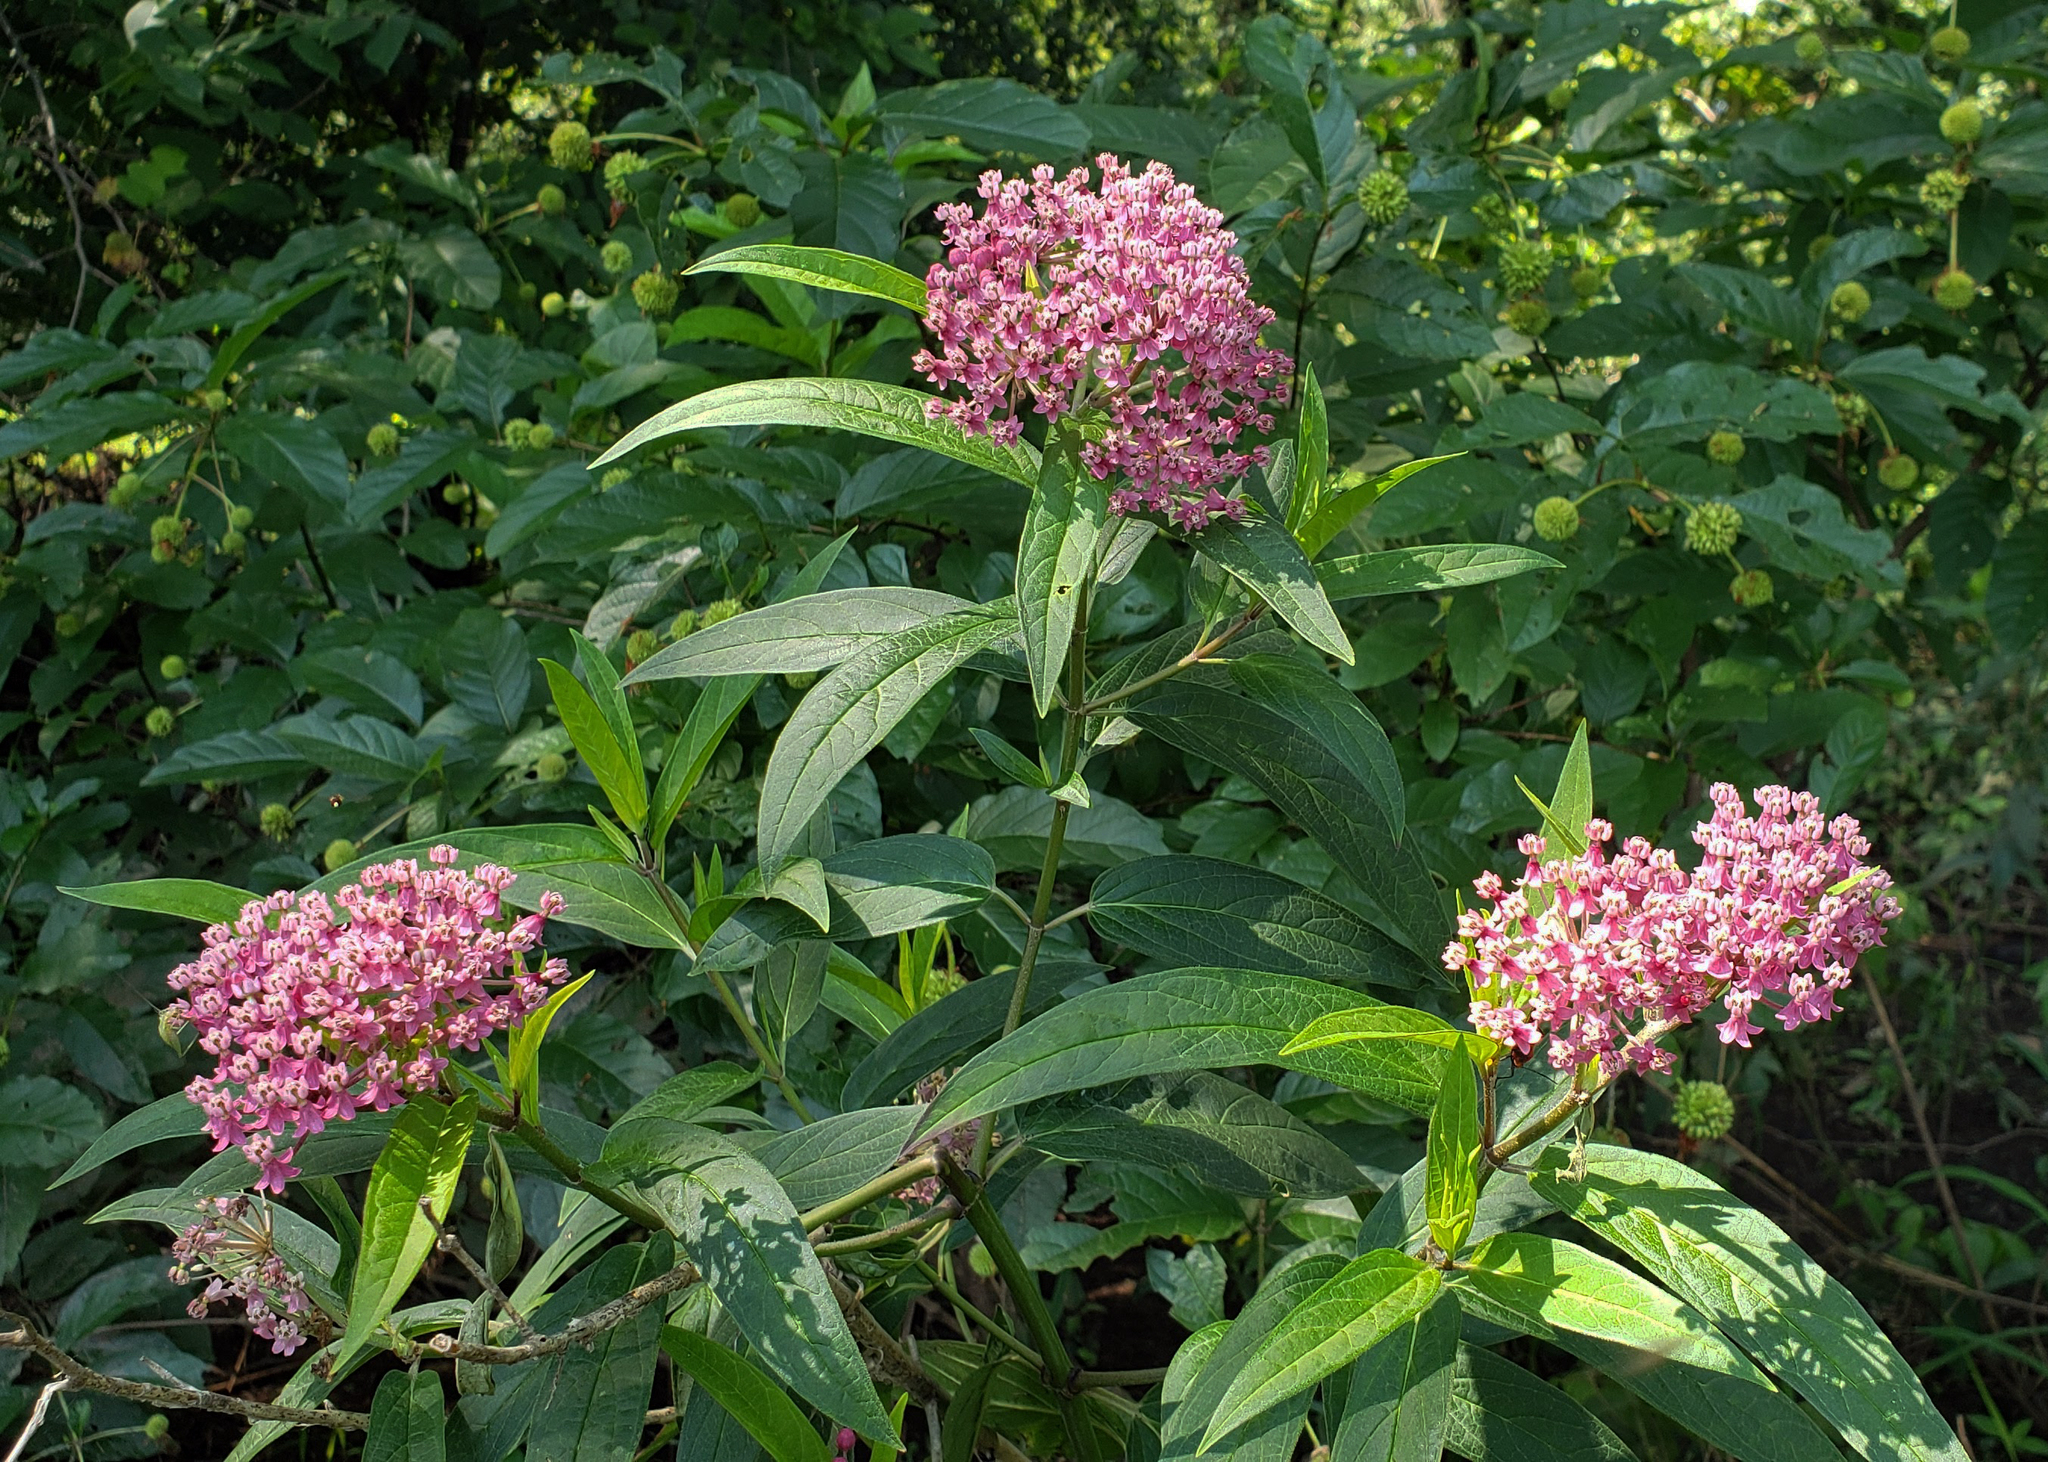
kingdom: Plantae
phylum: Tracheophyta
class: Magnoliopsida
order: Gentianales
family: Apocynaceae
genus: Asclepias
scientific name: Asclepias incarnata
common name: Swamp milkweed
